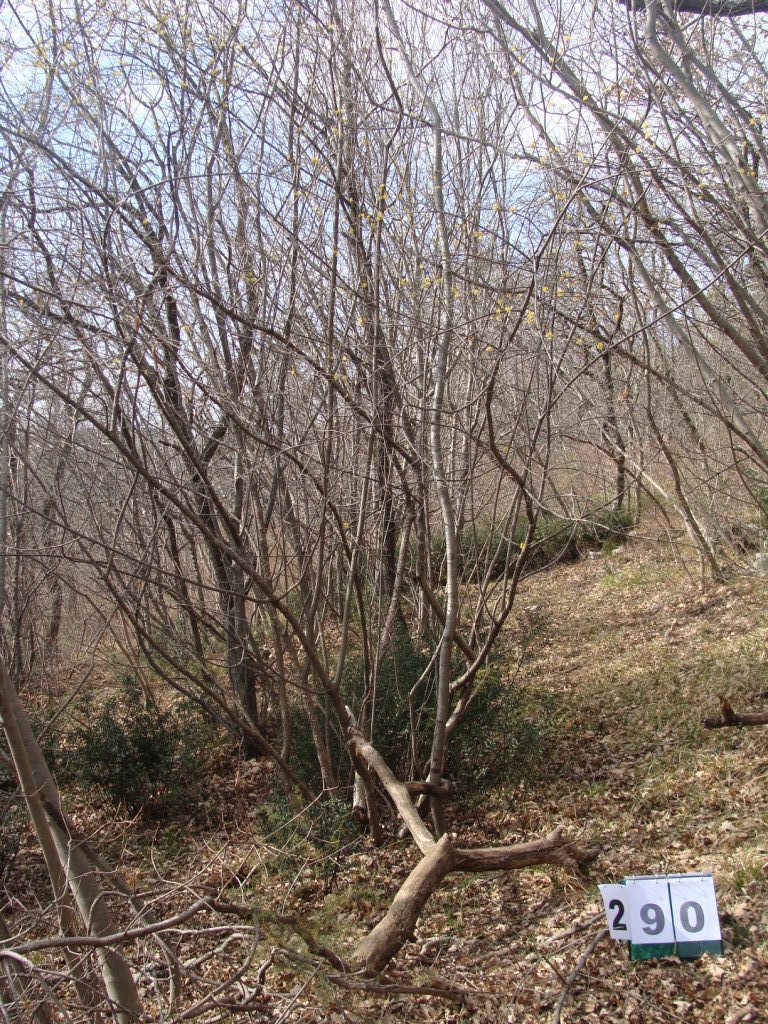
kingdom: Plantae
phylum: Tracheophyta
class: Magnoliopsida
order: Cornales
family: Cornaceae
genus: Cornus
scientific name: Cornus mas
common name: Cornelian-cherry
